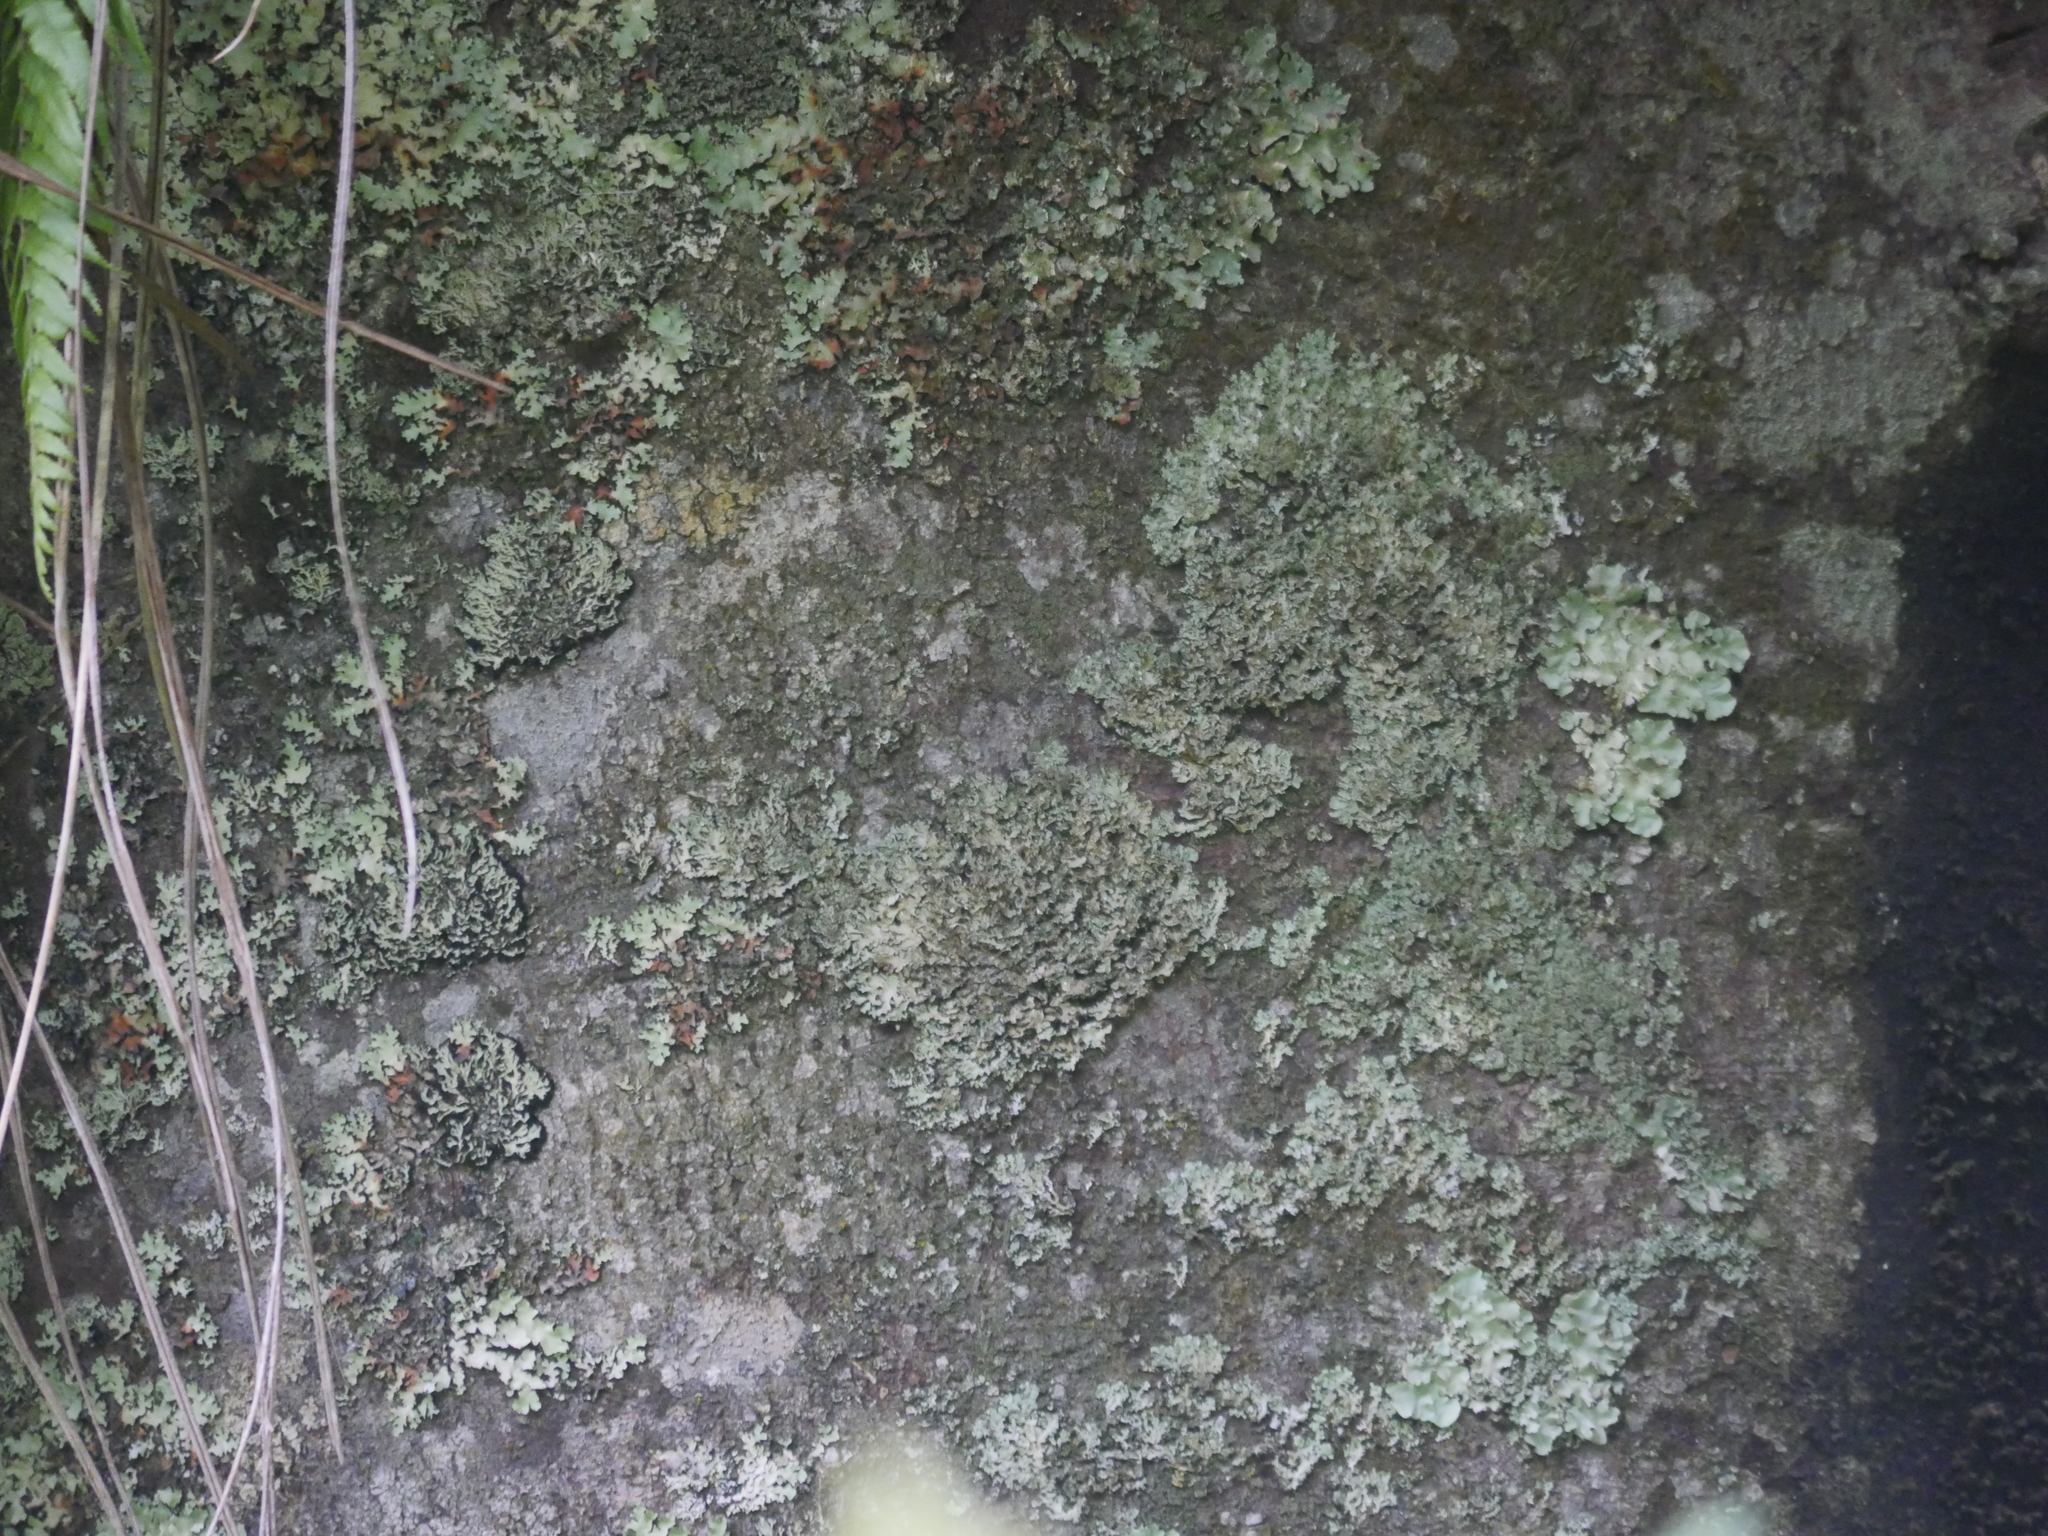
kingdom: Plantae
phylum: Tracheophyta
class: Magnoliopsida
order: Laurales
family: Lauraceae
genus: Beilschmiedia
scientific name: Beilschmiedia tawa
